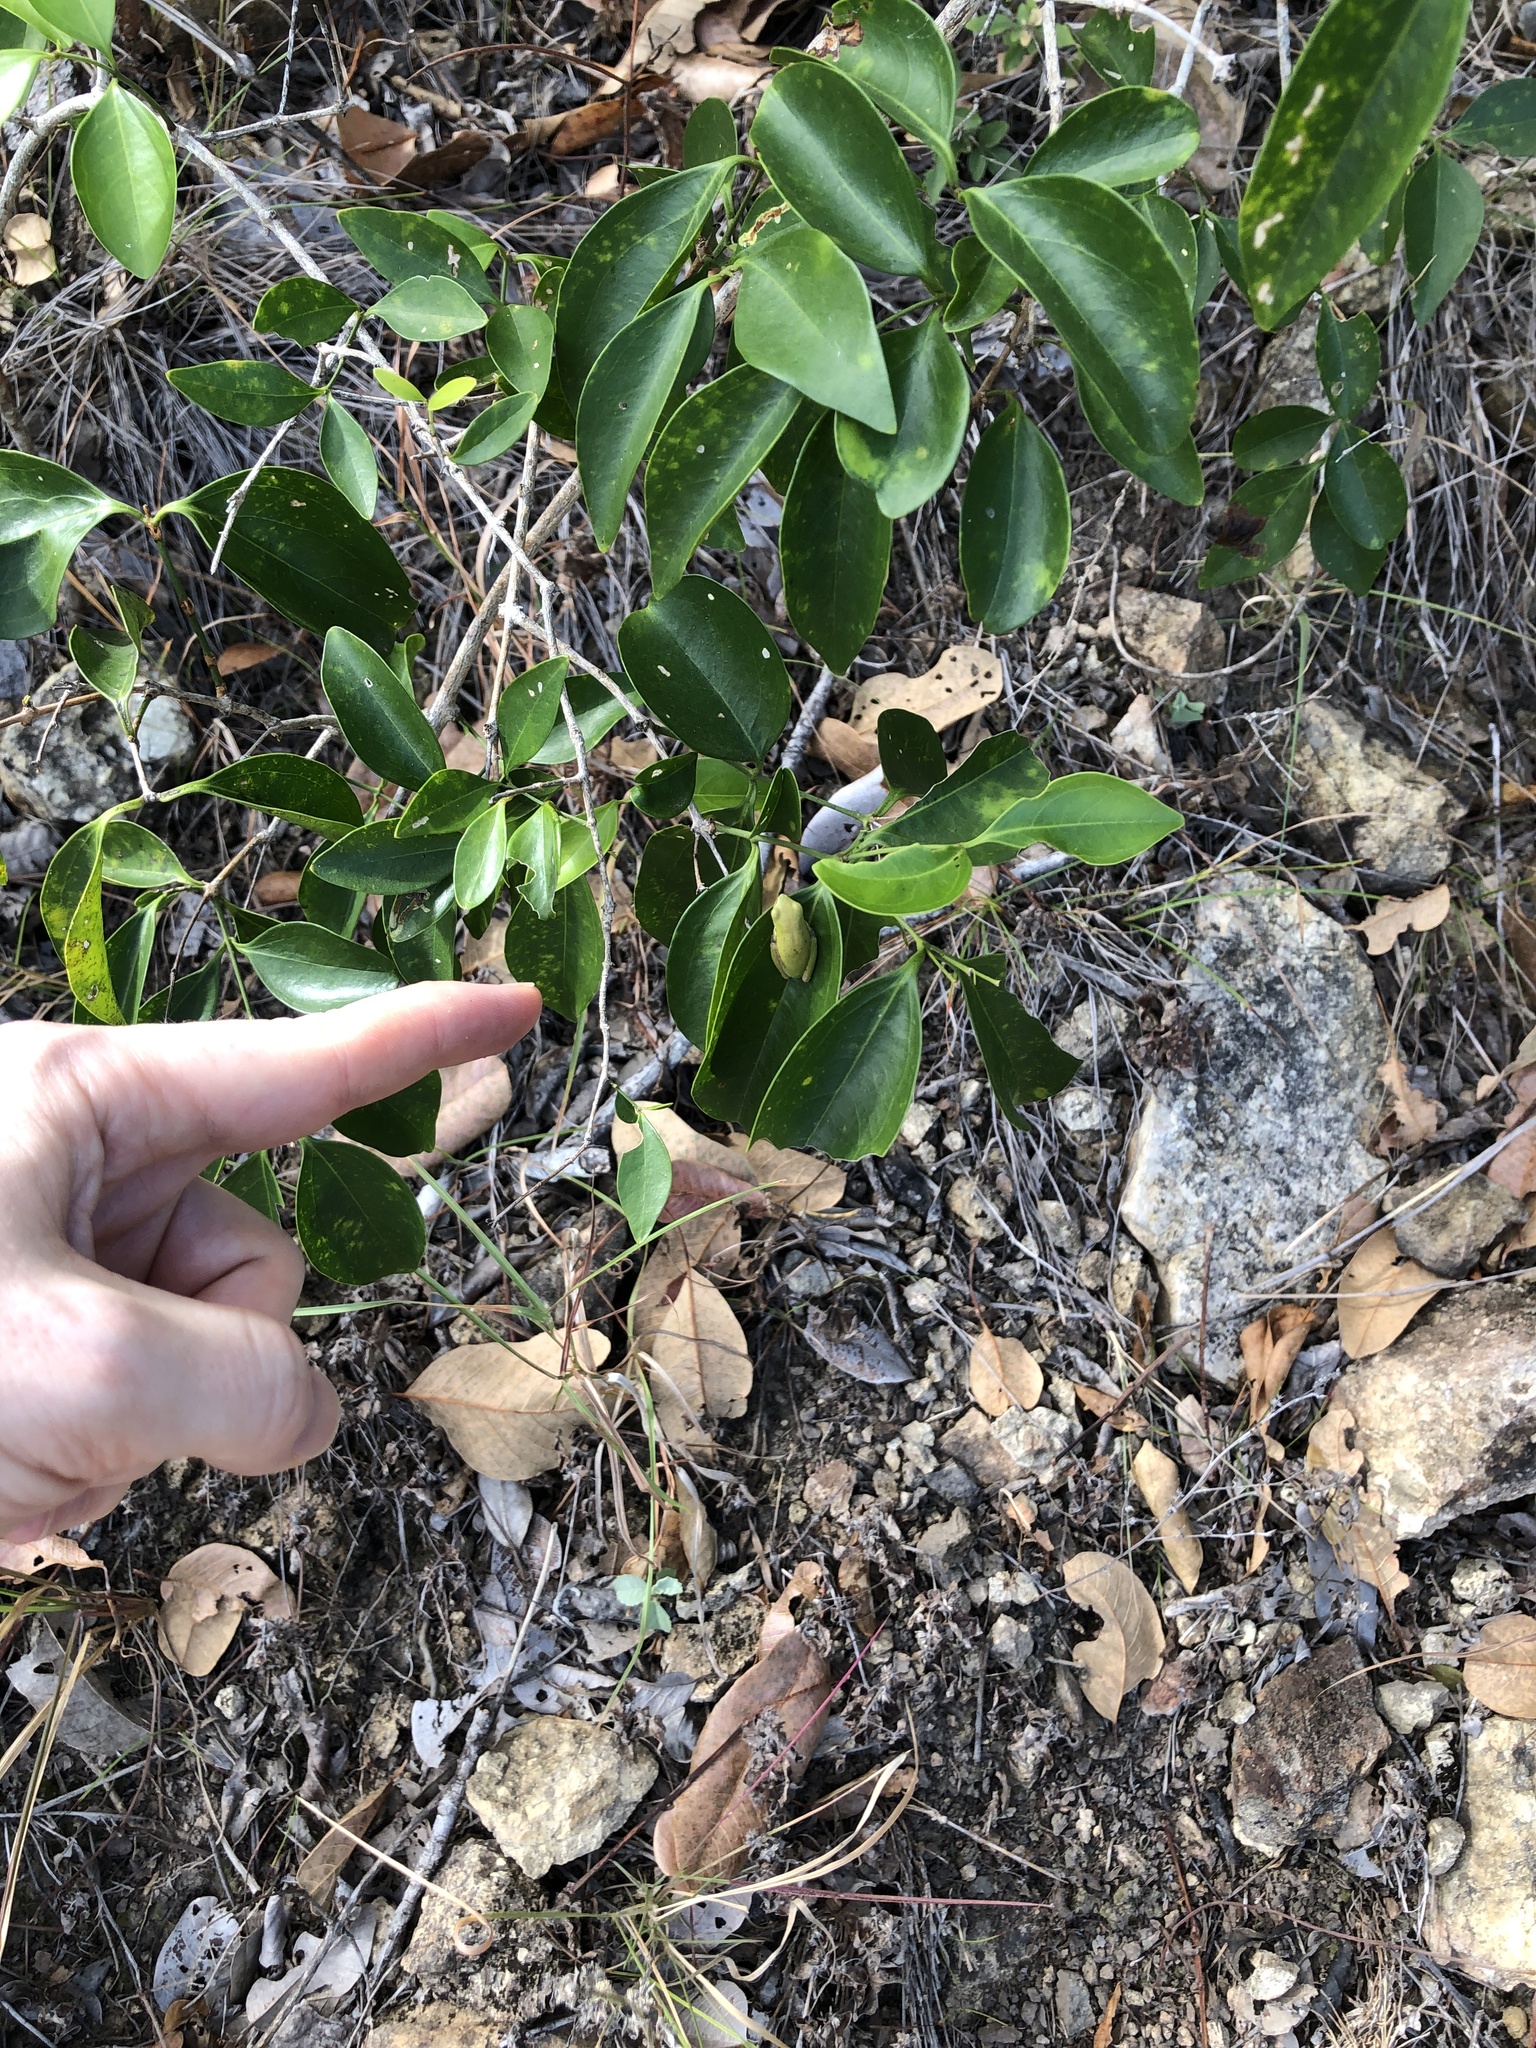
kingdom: Animalia
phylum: Chordata
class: Amphibia
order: Anura
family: Pelodryadidae
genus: Litoria
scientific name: Litoria
